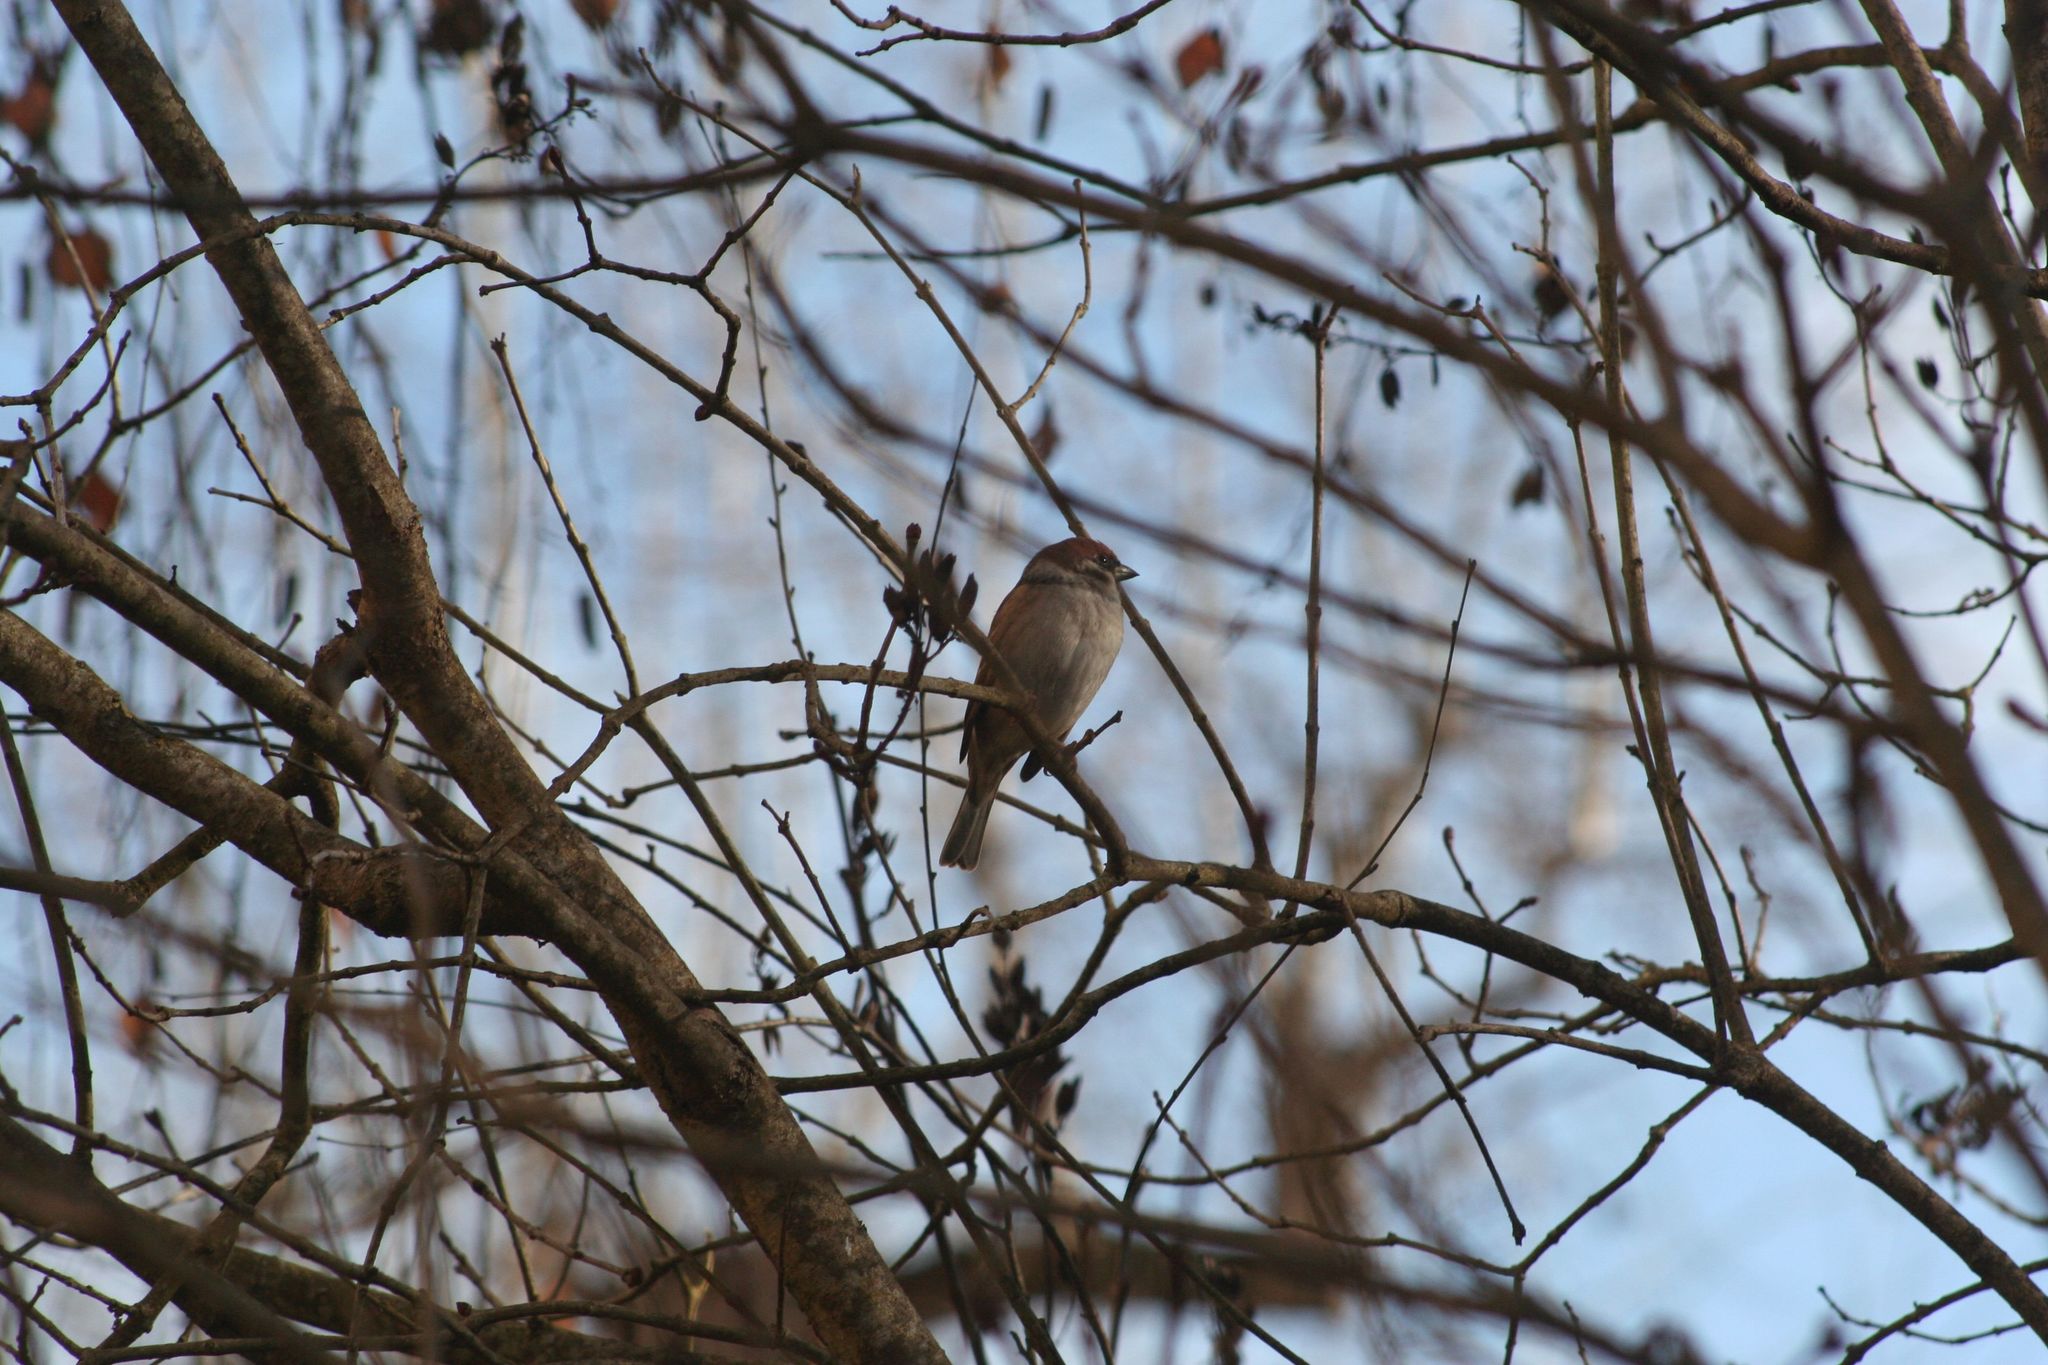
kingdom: Animalia
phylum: Chordata
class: Aves
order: Passeriformes
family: Passeridae
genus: Passer
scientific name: Passer montanus
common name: Eurasian tree sparrow
